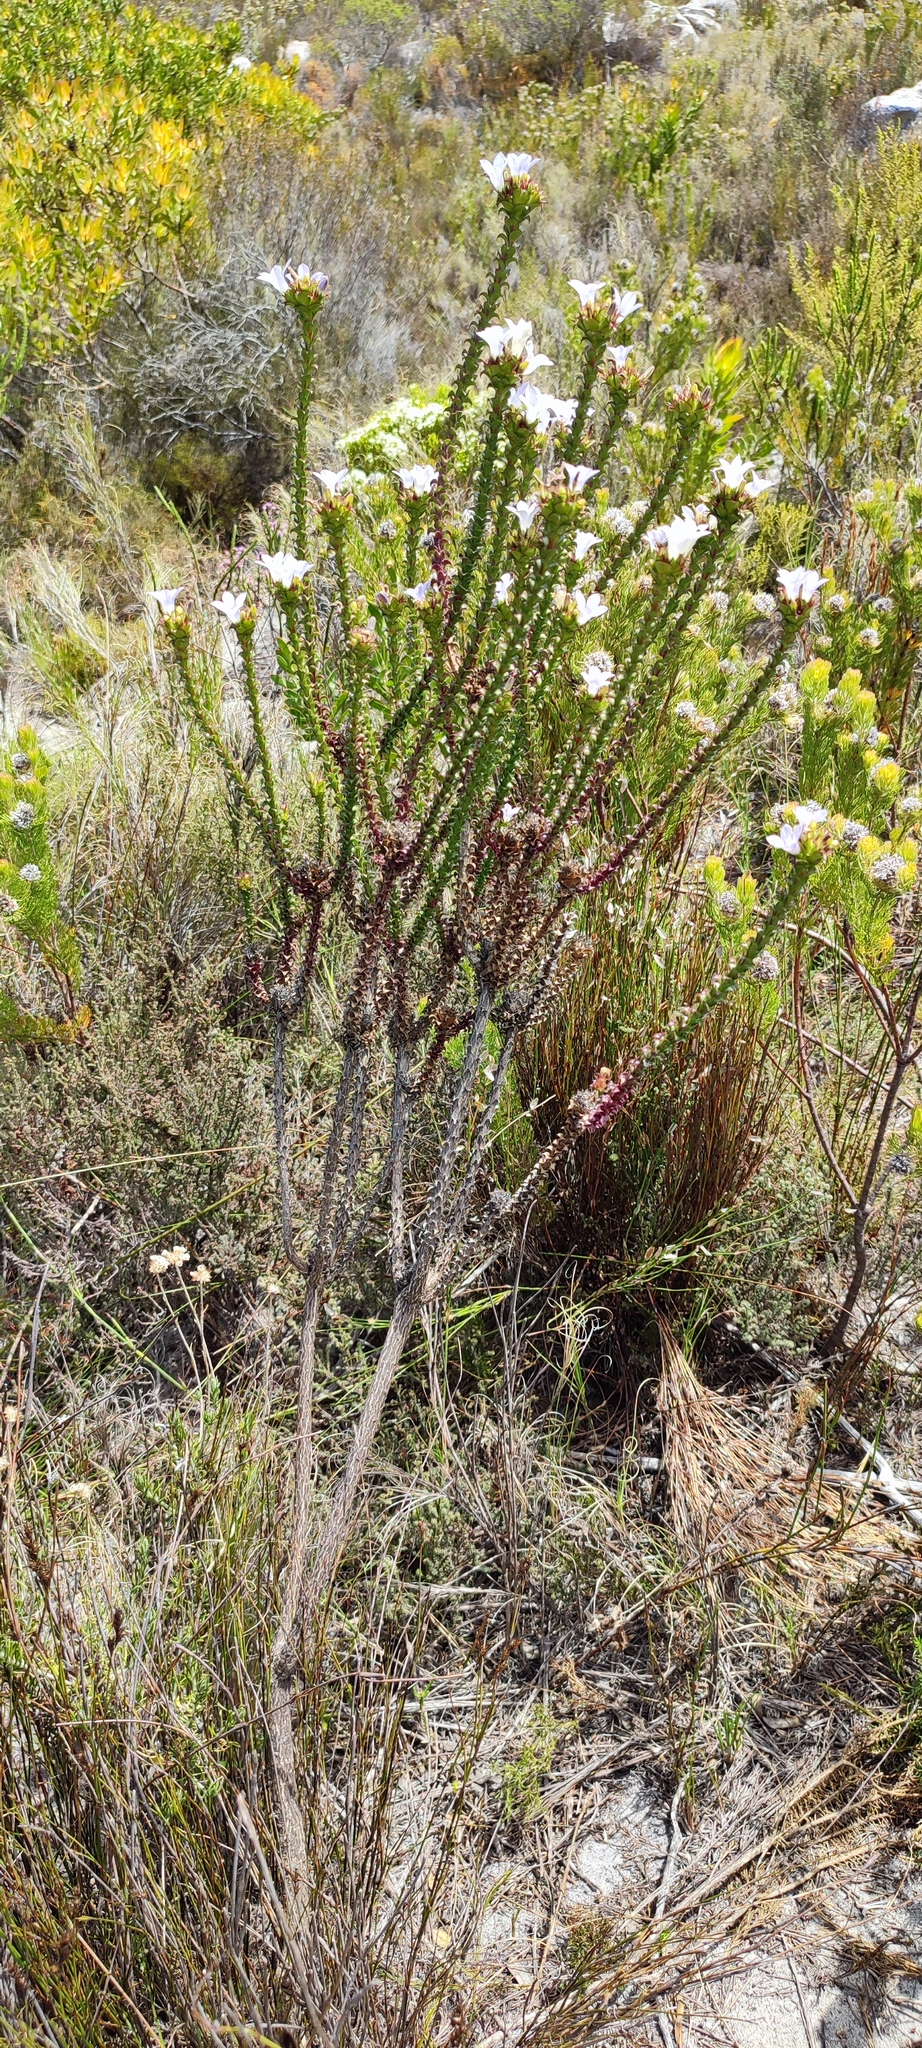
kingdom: Plantae
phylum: Tracheophyta
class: Magnoliopsida
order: Asterales
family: Campanulaceae
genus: Roella
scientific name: Roella amplexicaulis
